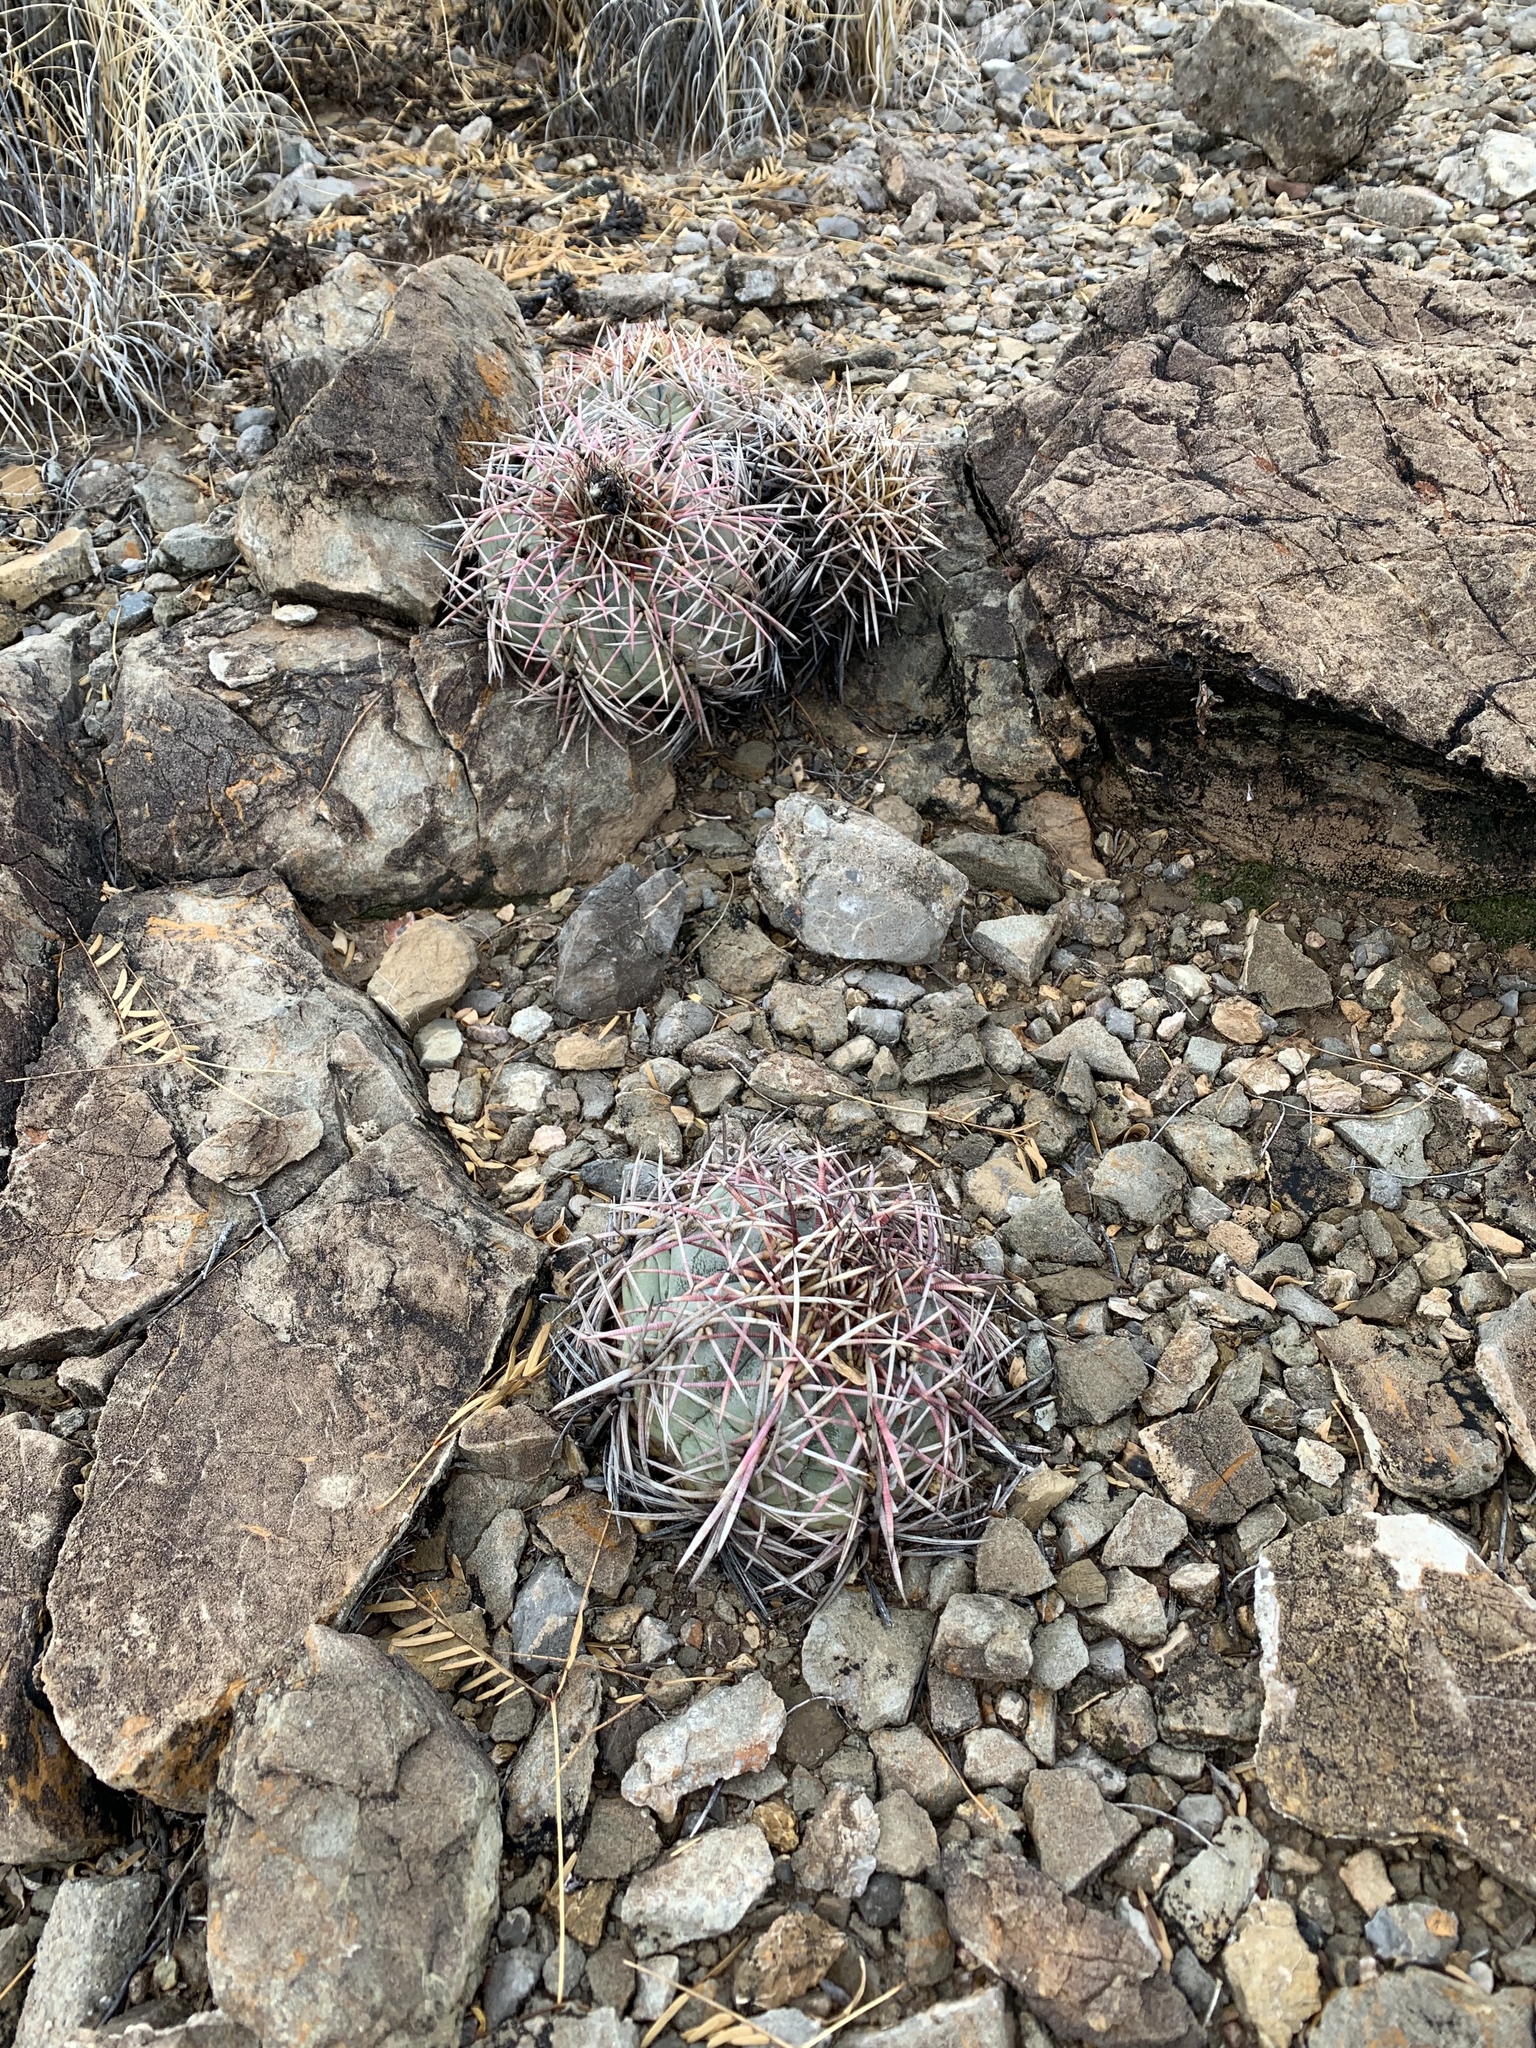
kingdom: Plantae
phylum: Tracheophyta
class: Magnoliopsida
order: Caryophyllales
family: Cactaceae
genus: Echinocactus
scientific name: Echinocactus horizonthalonius
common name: Devilshead
